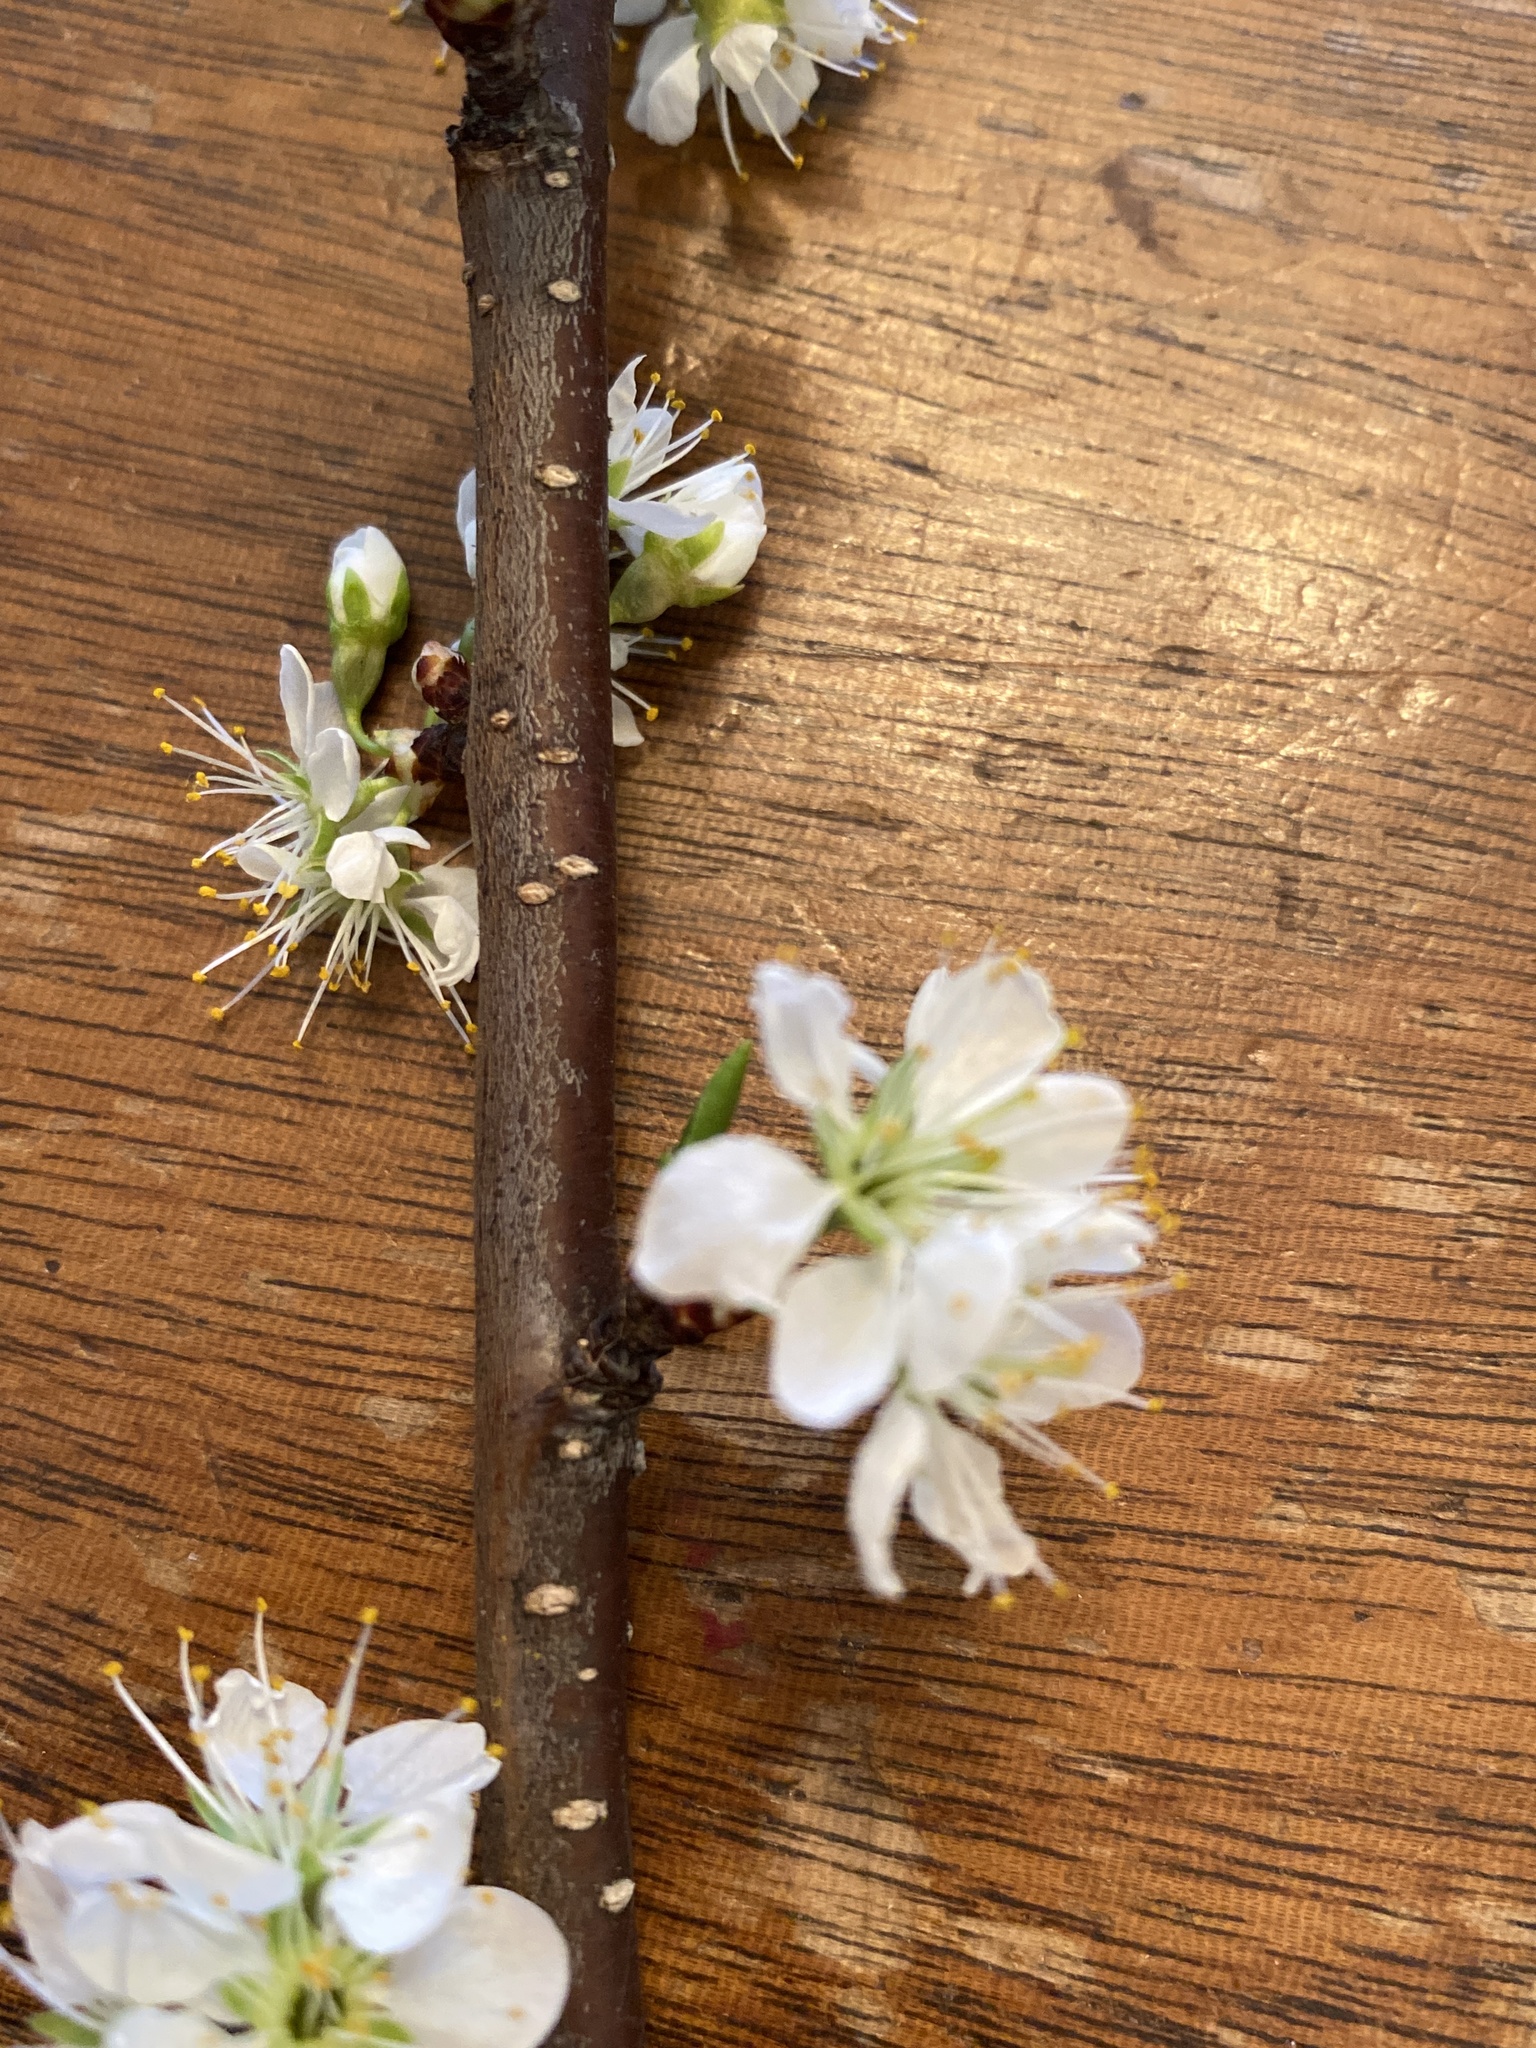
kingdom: Plantae
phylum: Tracheophyta
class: Magnoliopsida
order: Rosales
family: Rosaceae
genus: Prunus
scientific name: Prunus americana
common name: American plum
